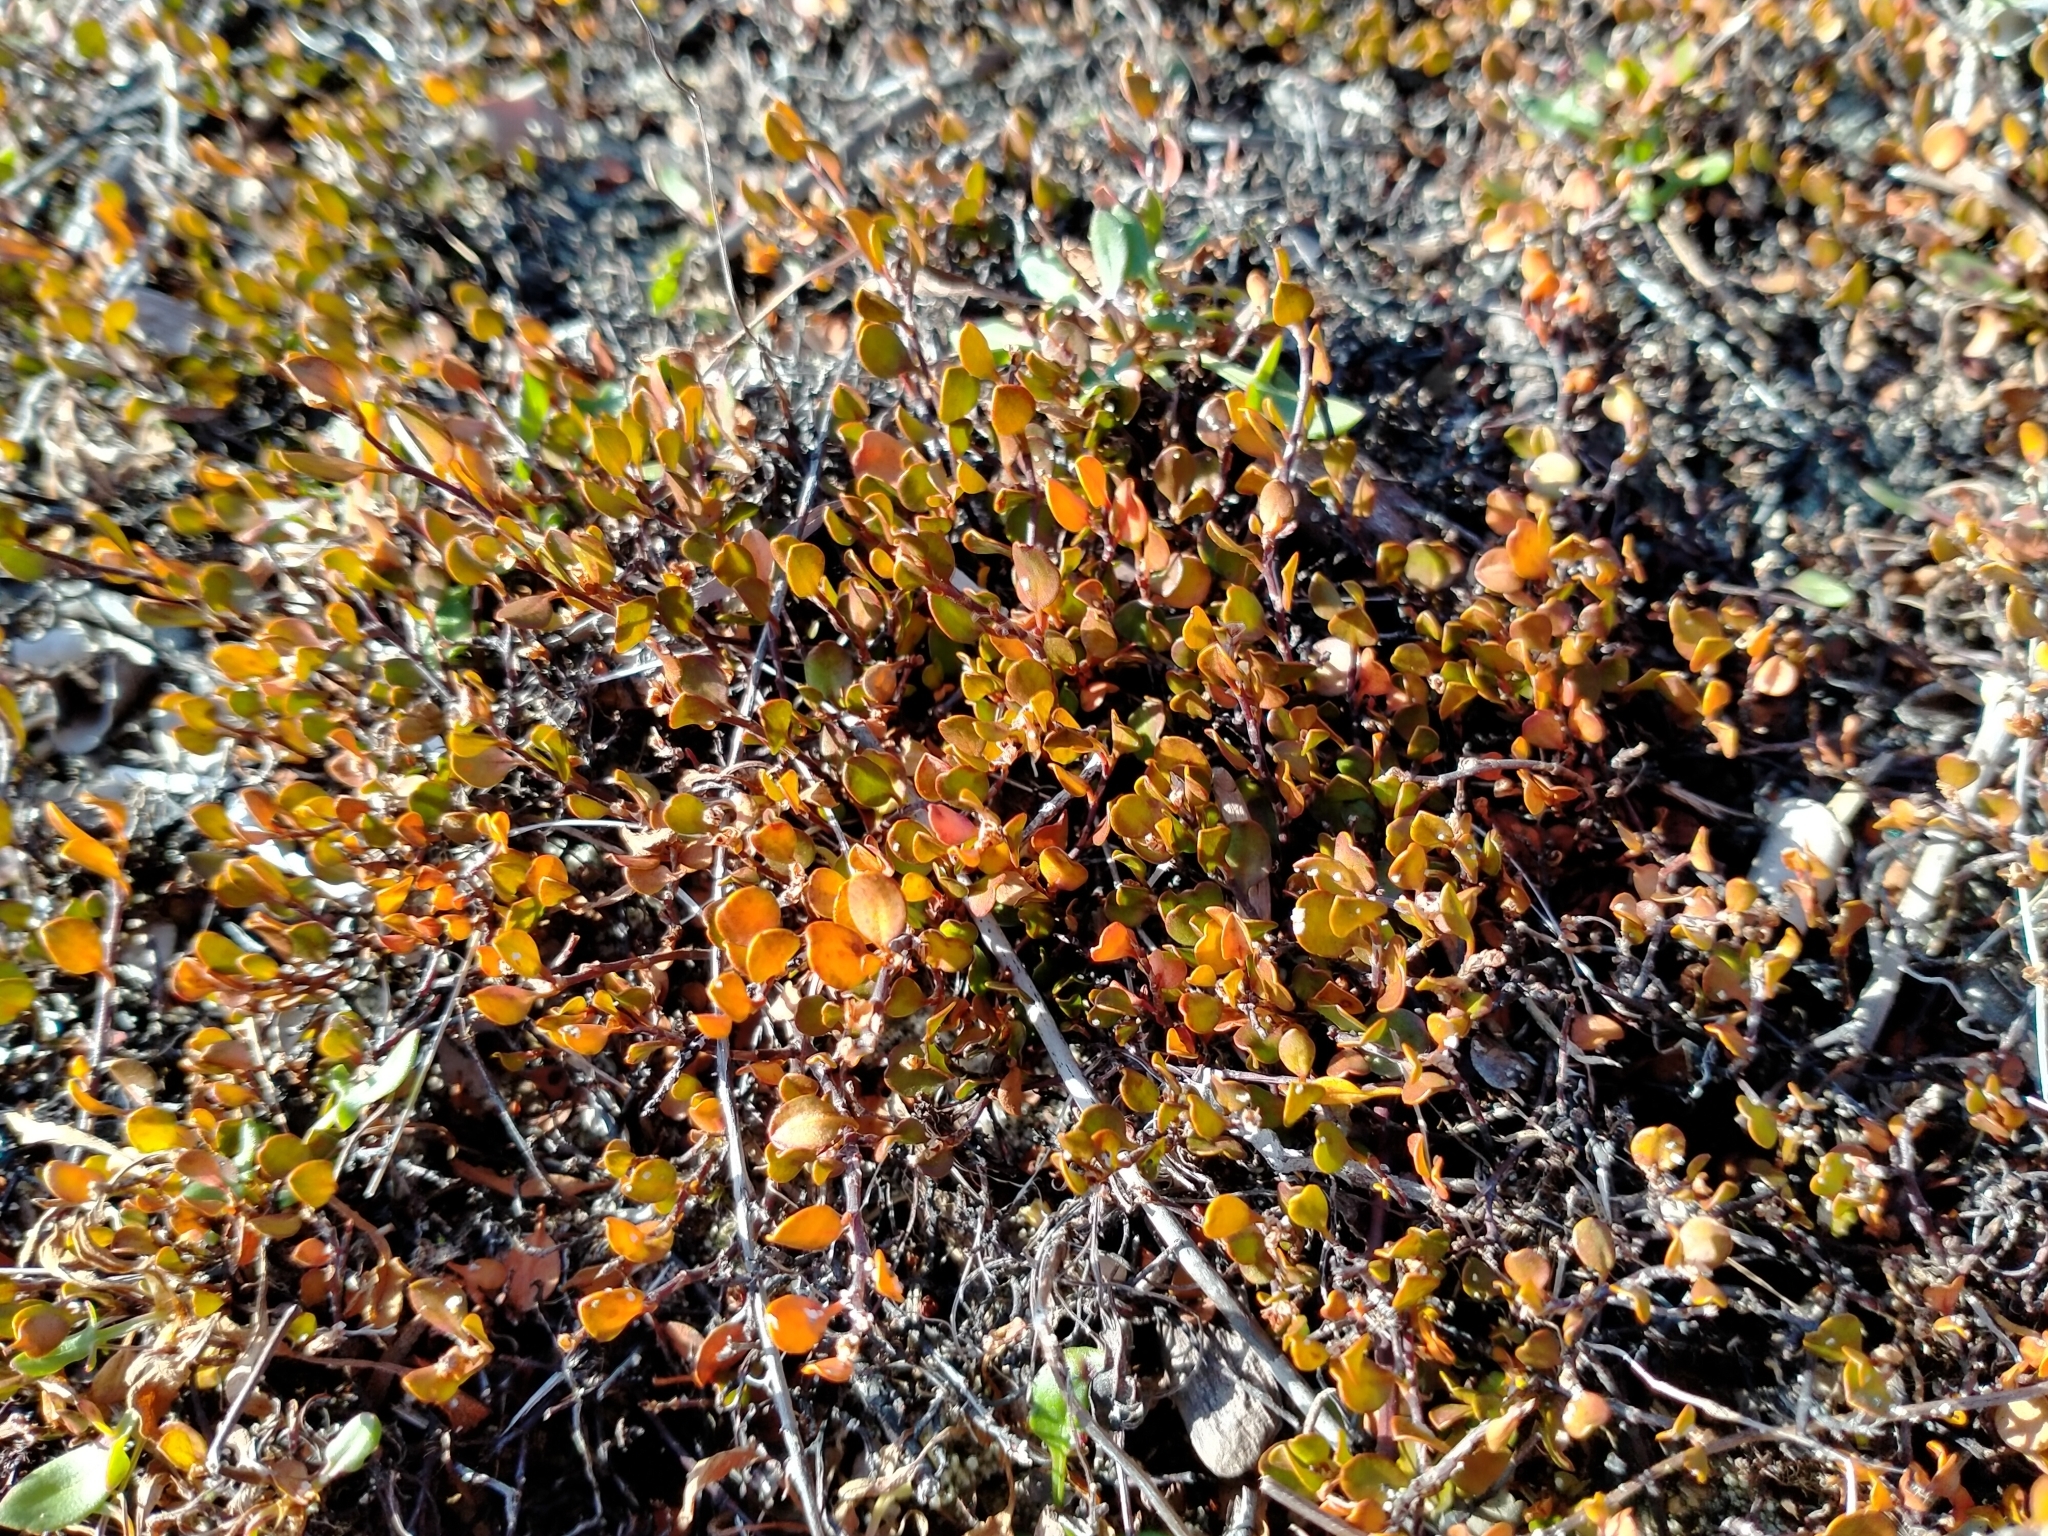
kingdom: Plantae
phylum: Tracheophyta
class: Magnoliopsida
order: Caryophyllales
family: Polygonaceae
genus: Muehlenbeckia
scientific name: Muehlenbeckia axillaris
